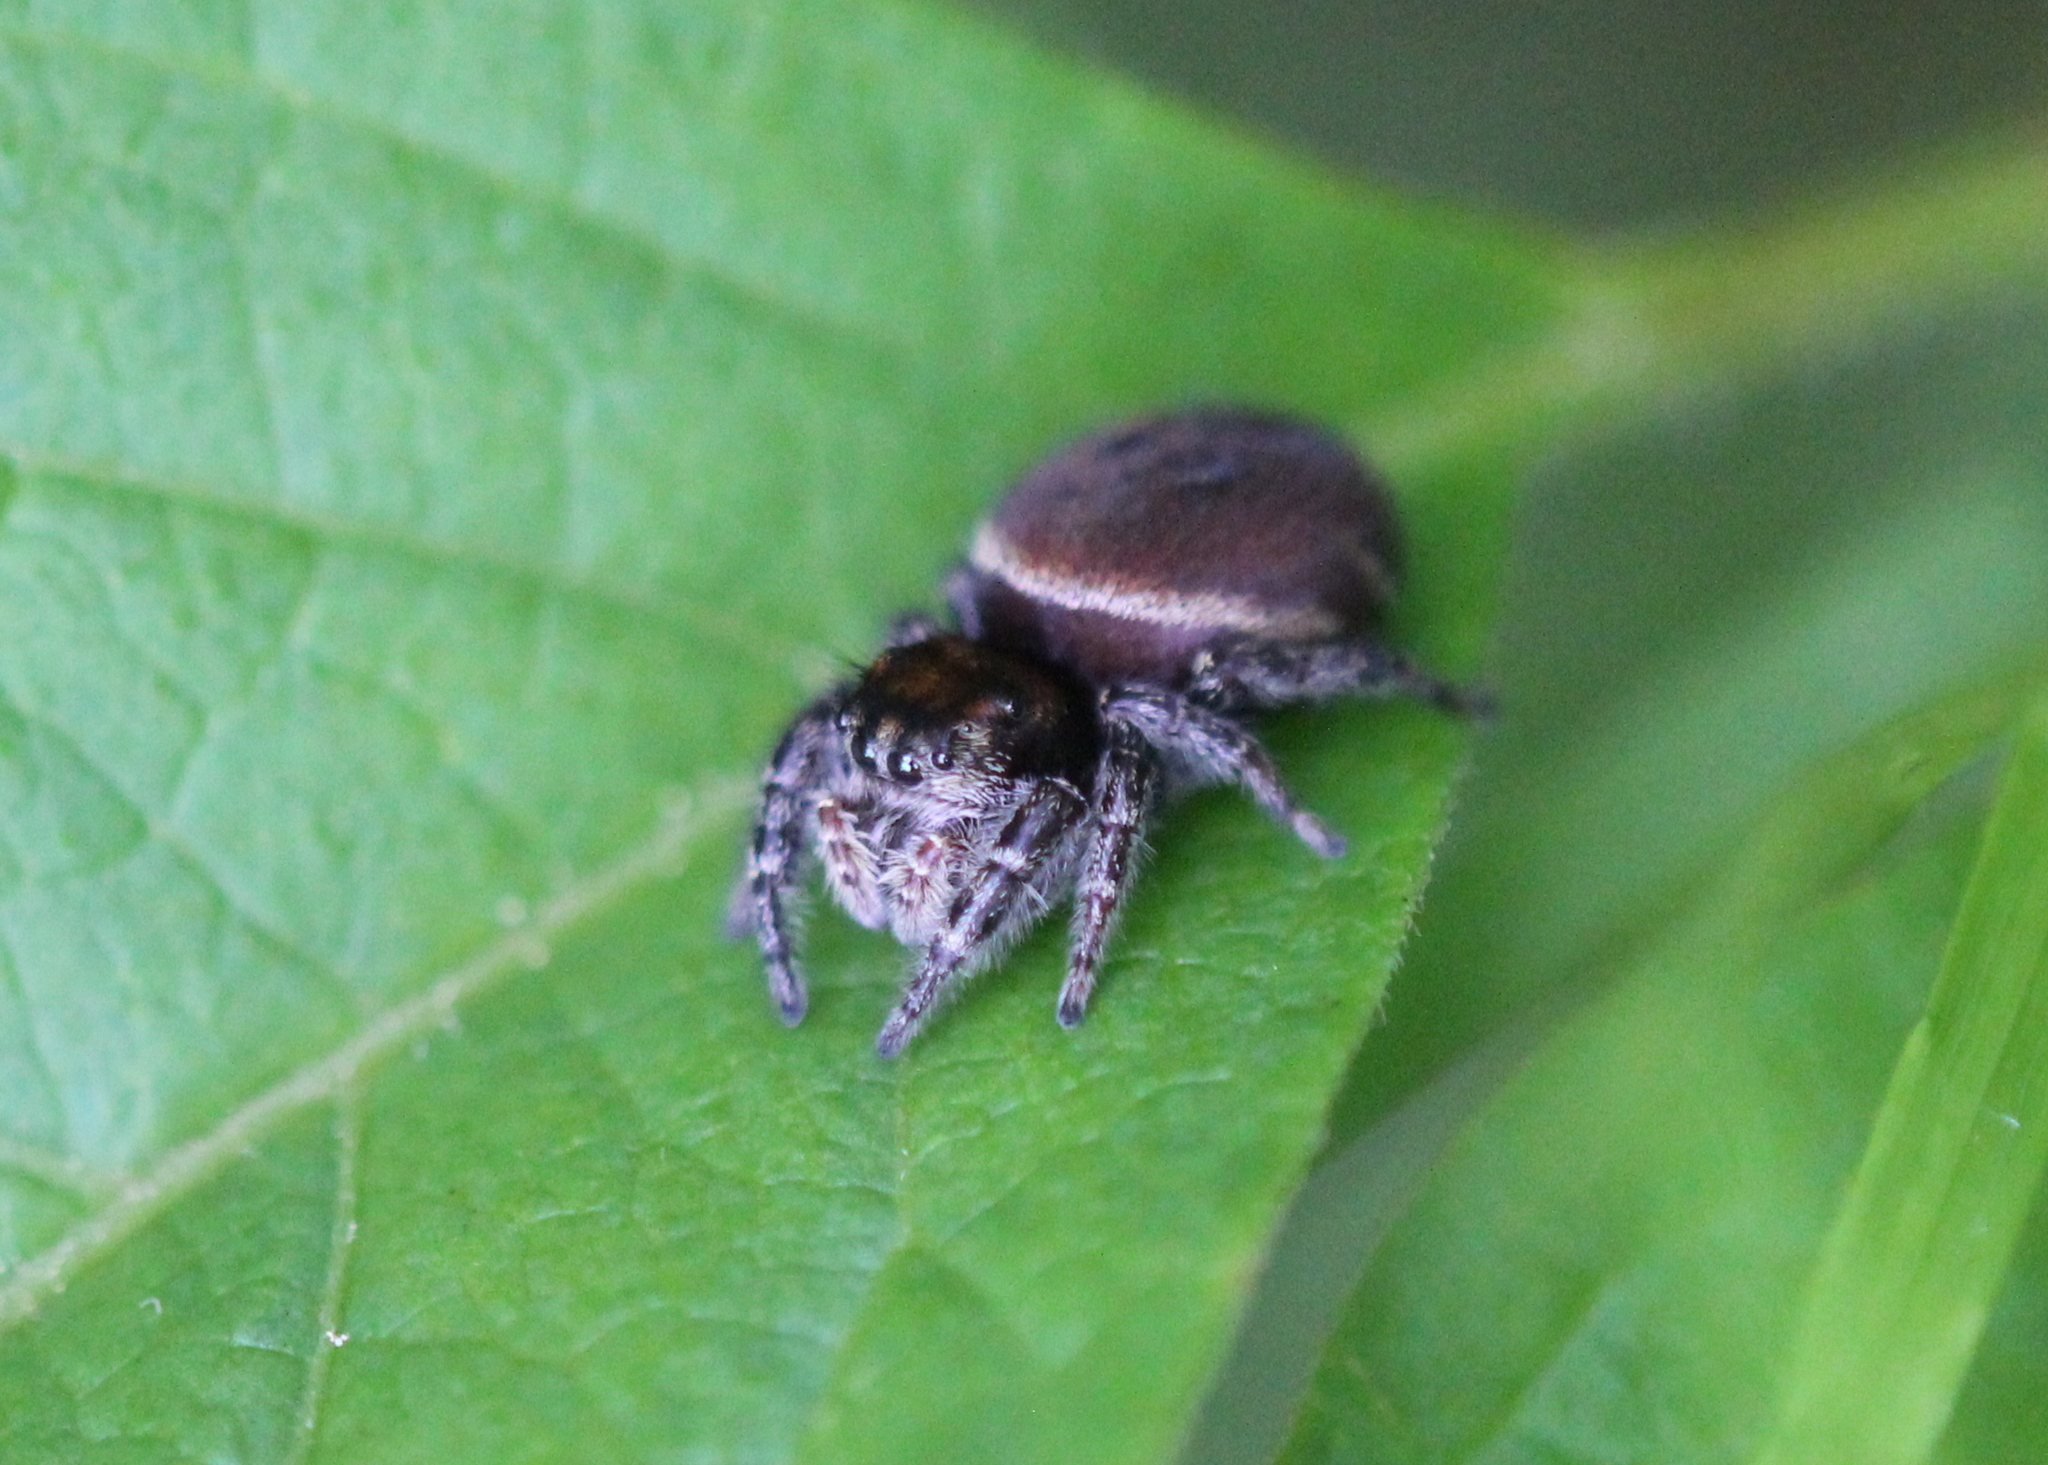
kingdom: Animalia
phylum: Arthropoda
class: Arachnida
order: Araneae
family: Salticidae
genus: Phidippus
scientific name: Phidippus whitmani
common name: Whitman's jumping spider
